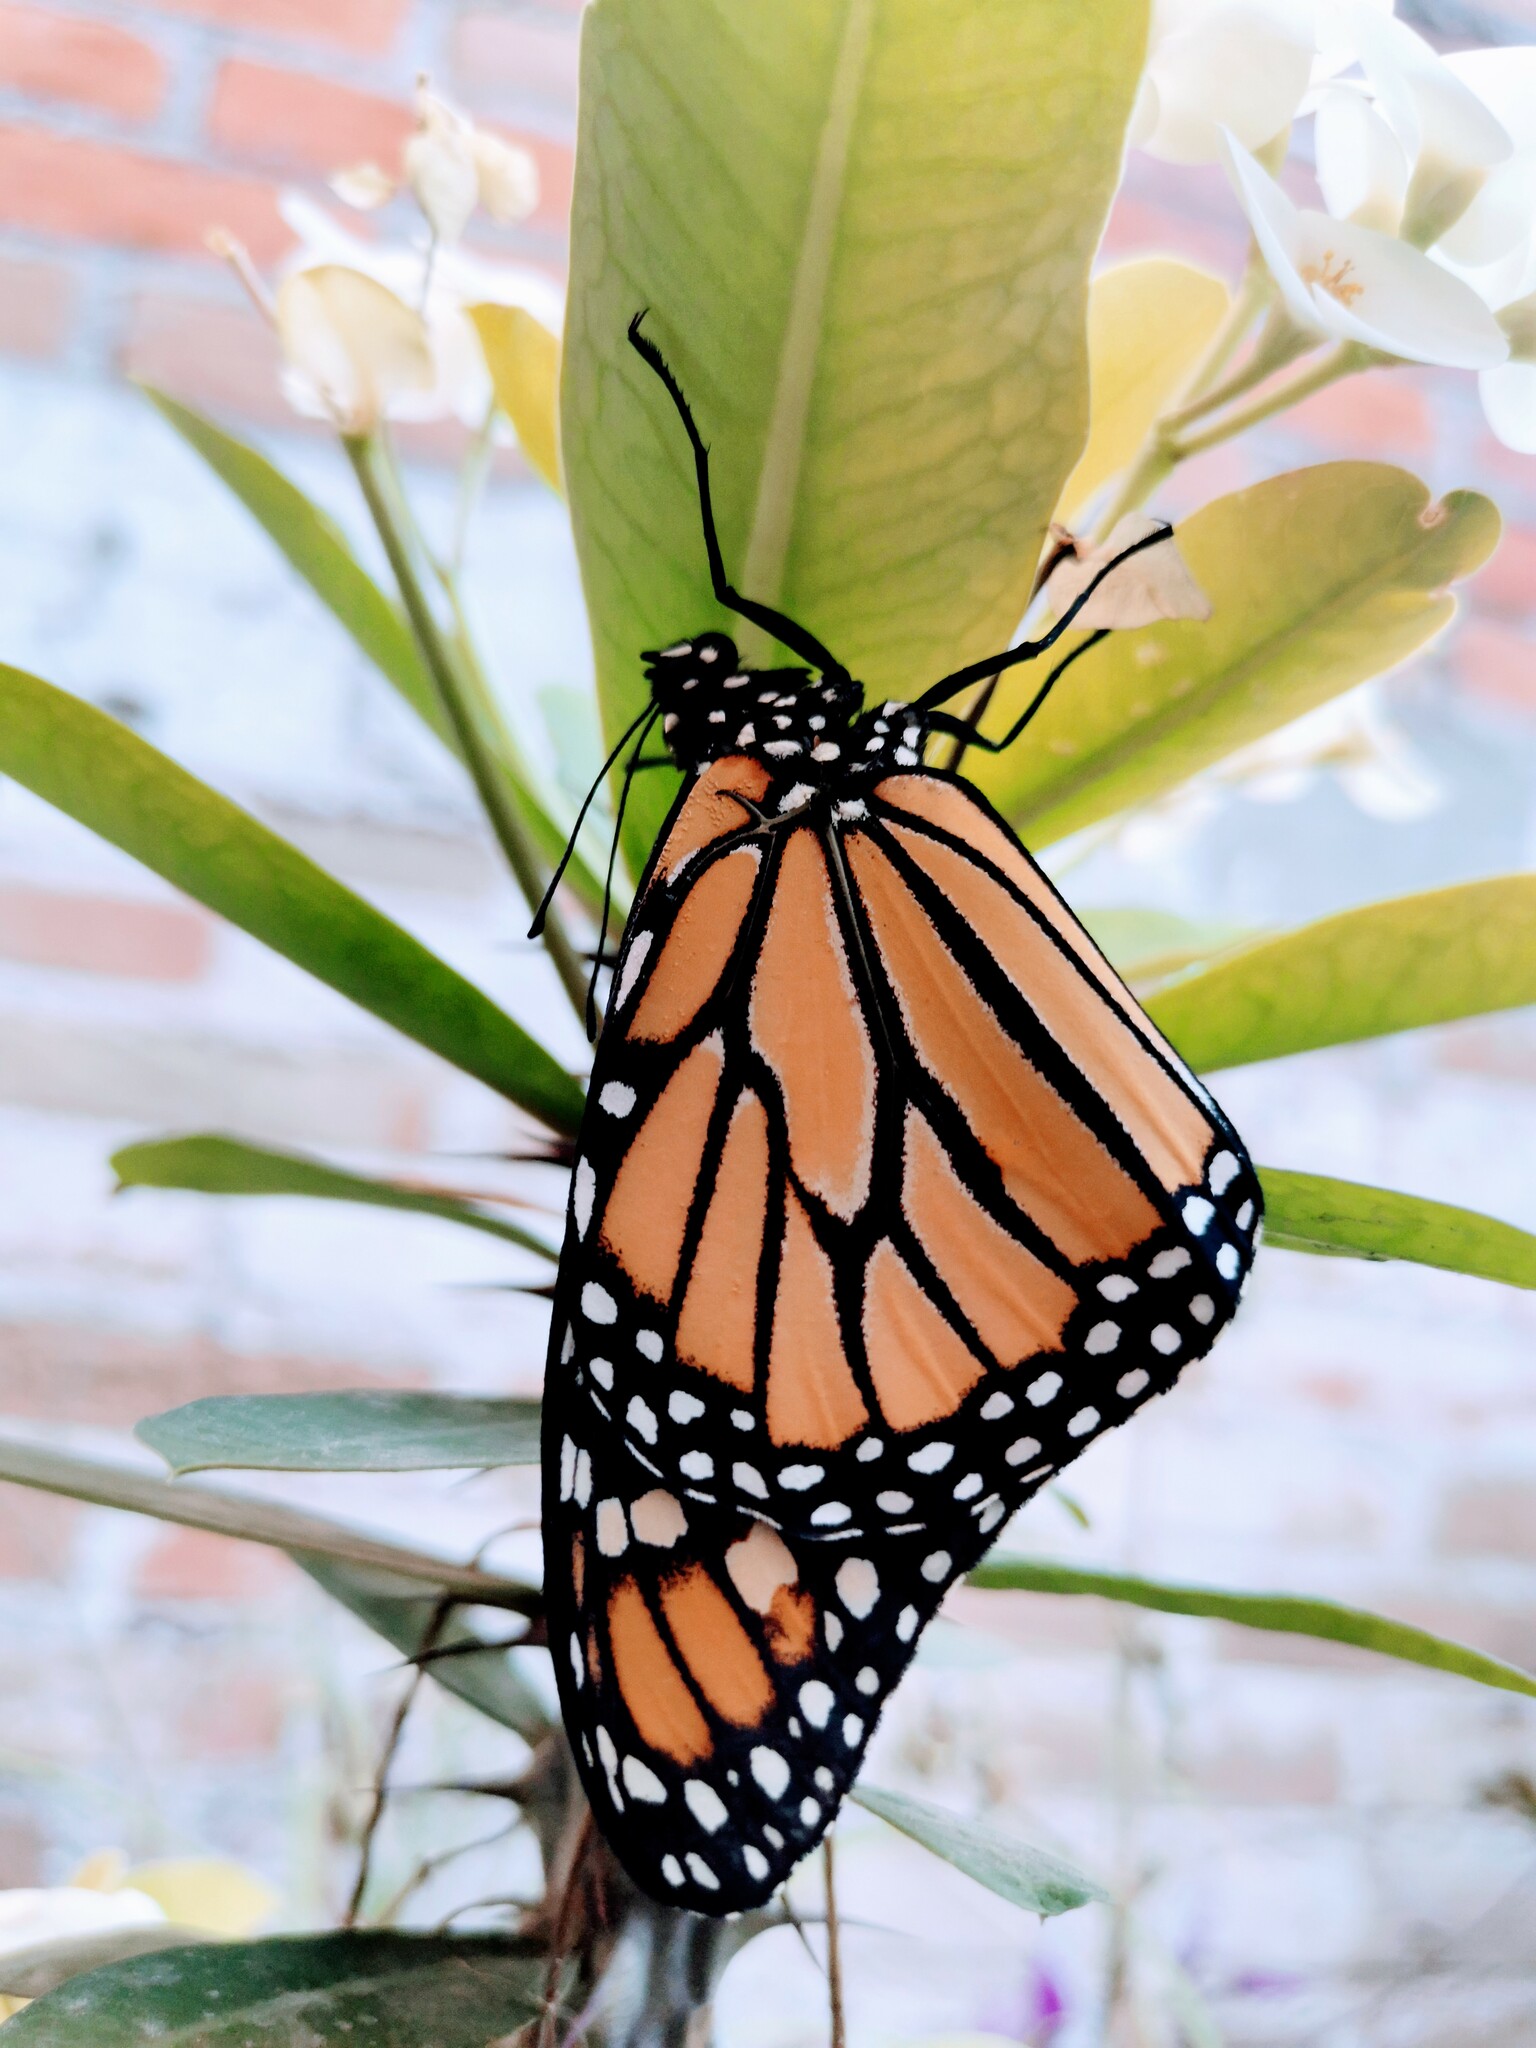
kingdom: Animalia
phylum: Arthropoda
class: Insecta
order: Lepidoptera
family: Nymphalidae
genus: Danaus
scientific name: Danaus plexippus
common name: Monarch
